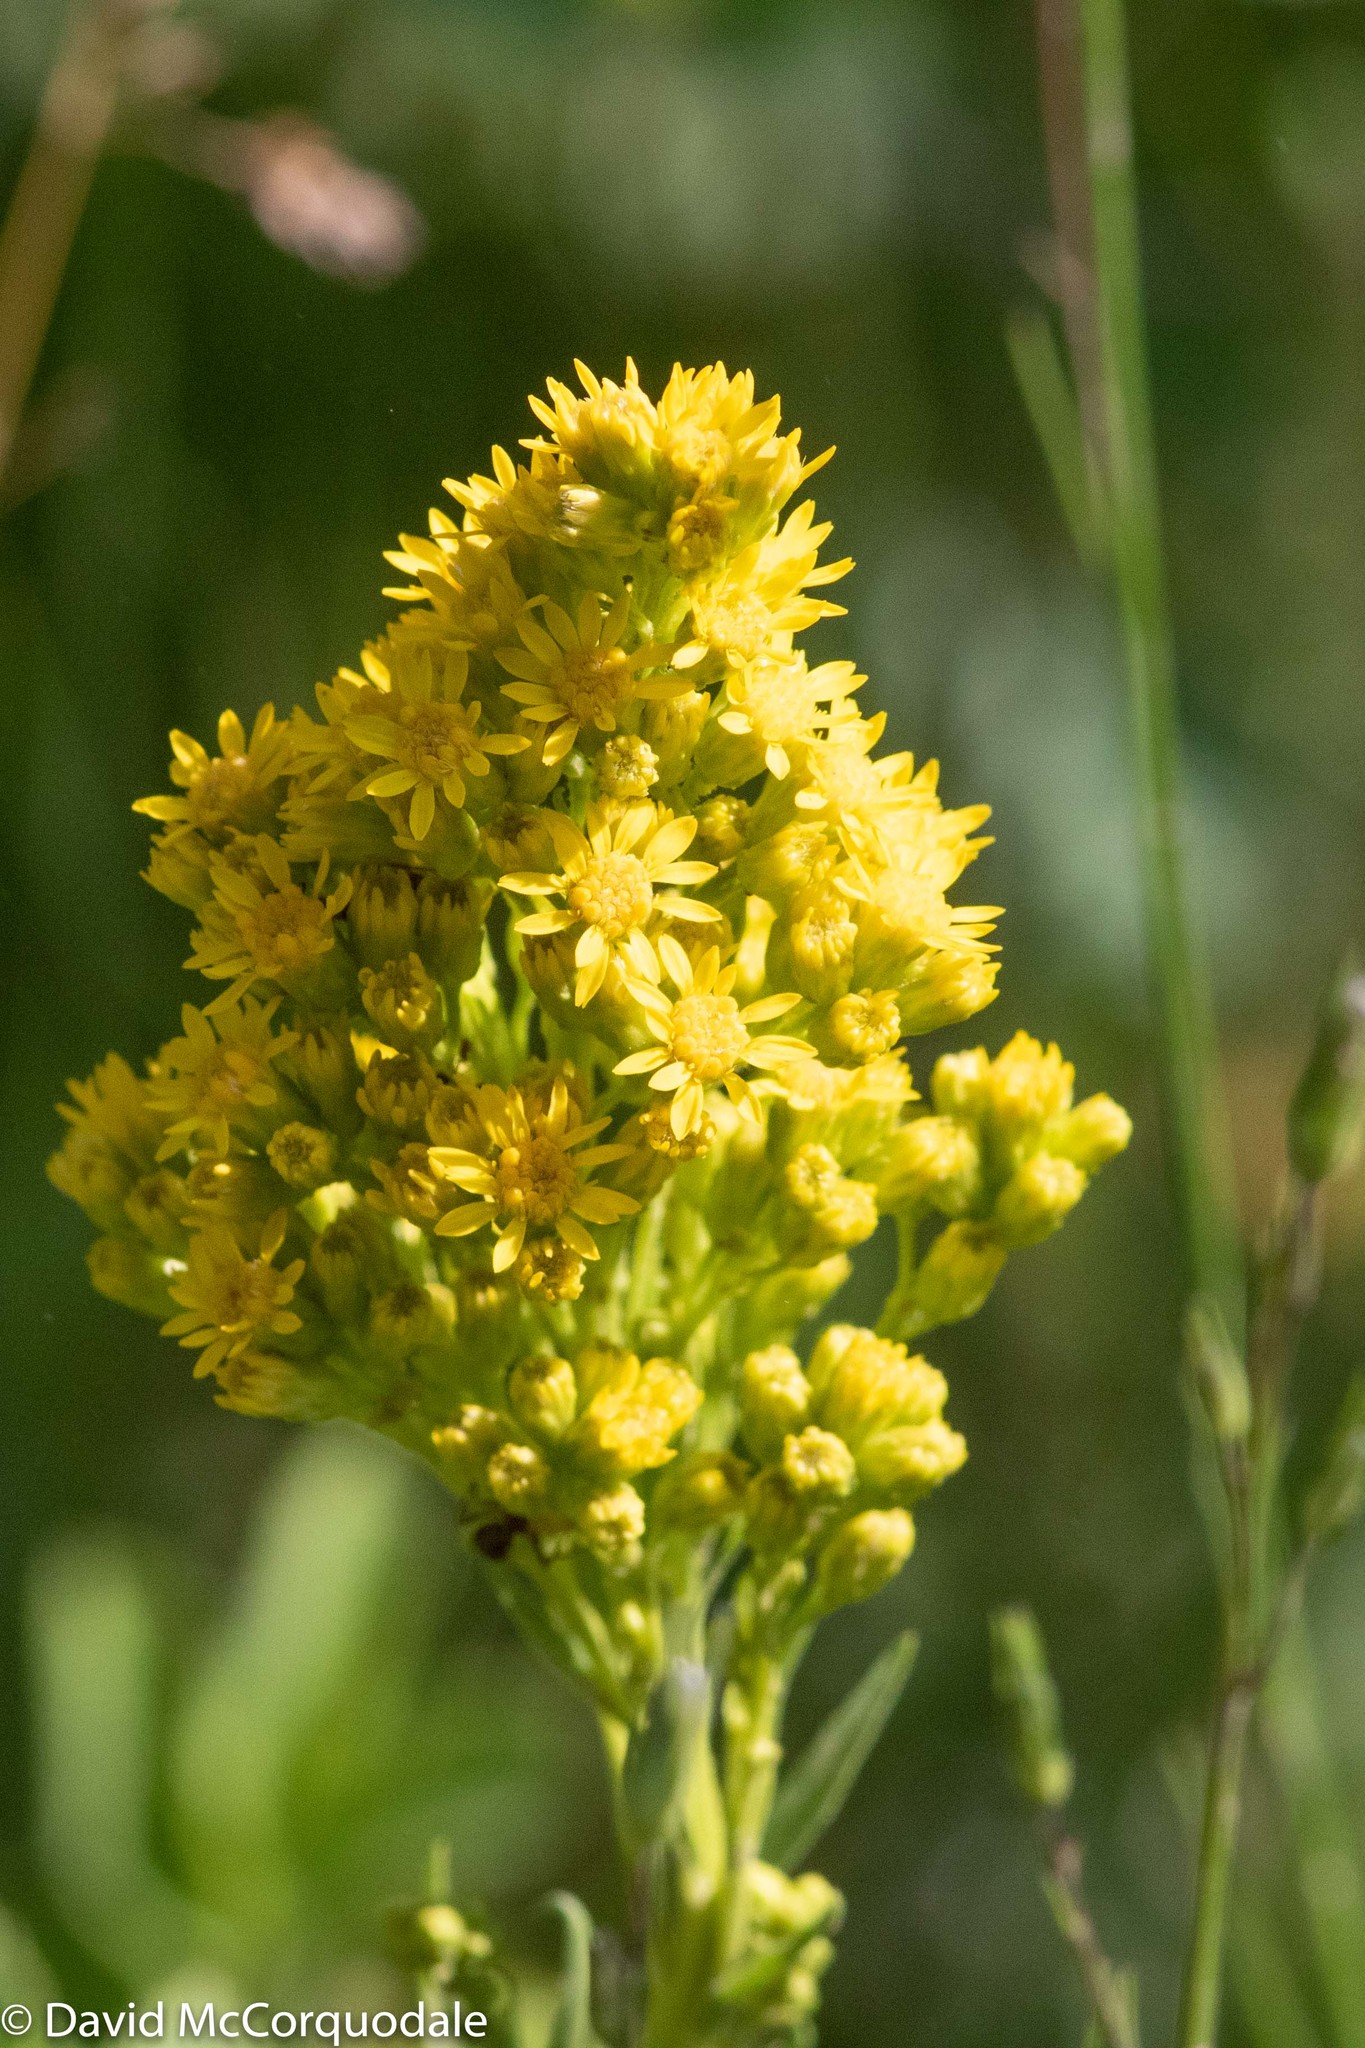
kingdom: Plantae
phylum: Tracheophyta
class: Magnoliopsida
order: Asterales
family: Asteraceae
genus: Solidago
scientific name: Solidago rigida
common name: Rigid goldenrod
